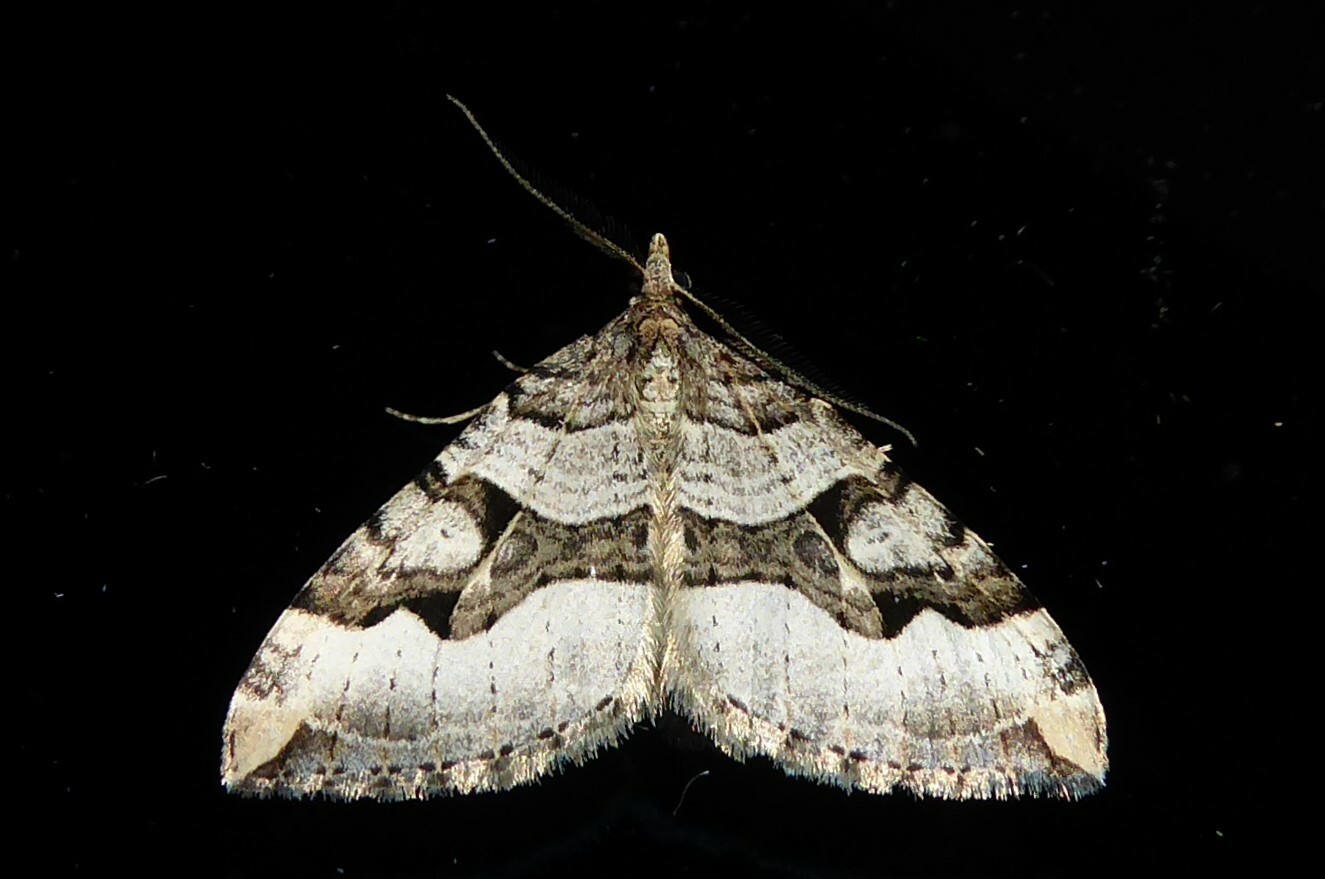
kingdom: Animalia
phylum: Arthropoda
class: Insecta
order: Lepidoptera
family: Geometridae
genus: Xanthorhoe
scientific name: Xanthorhoe semifissata
